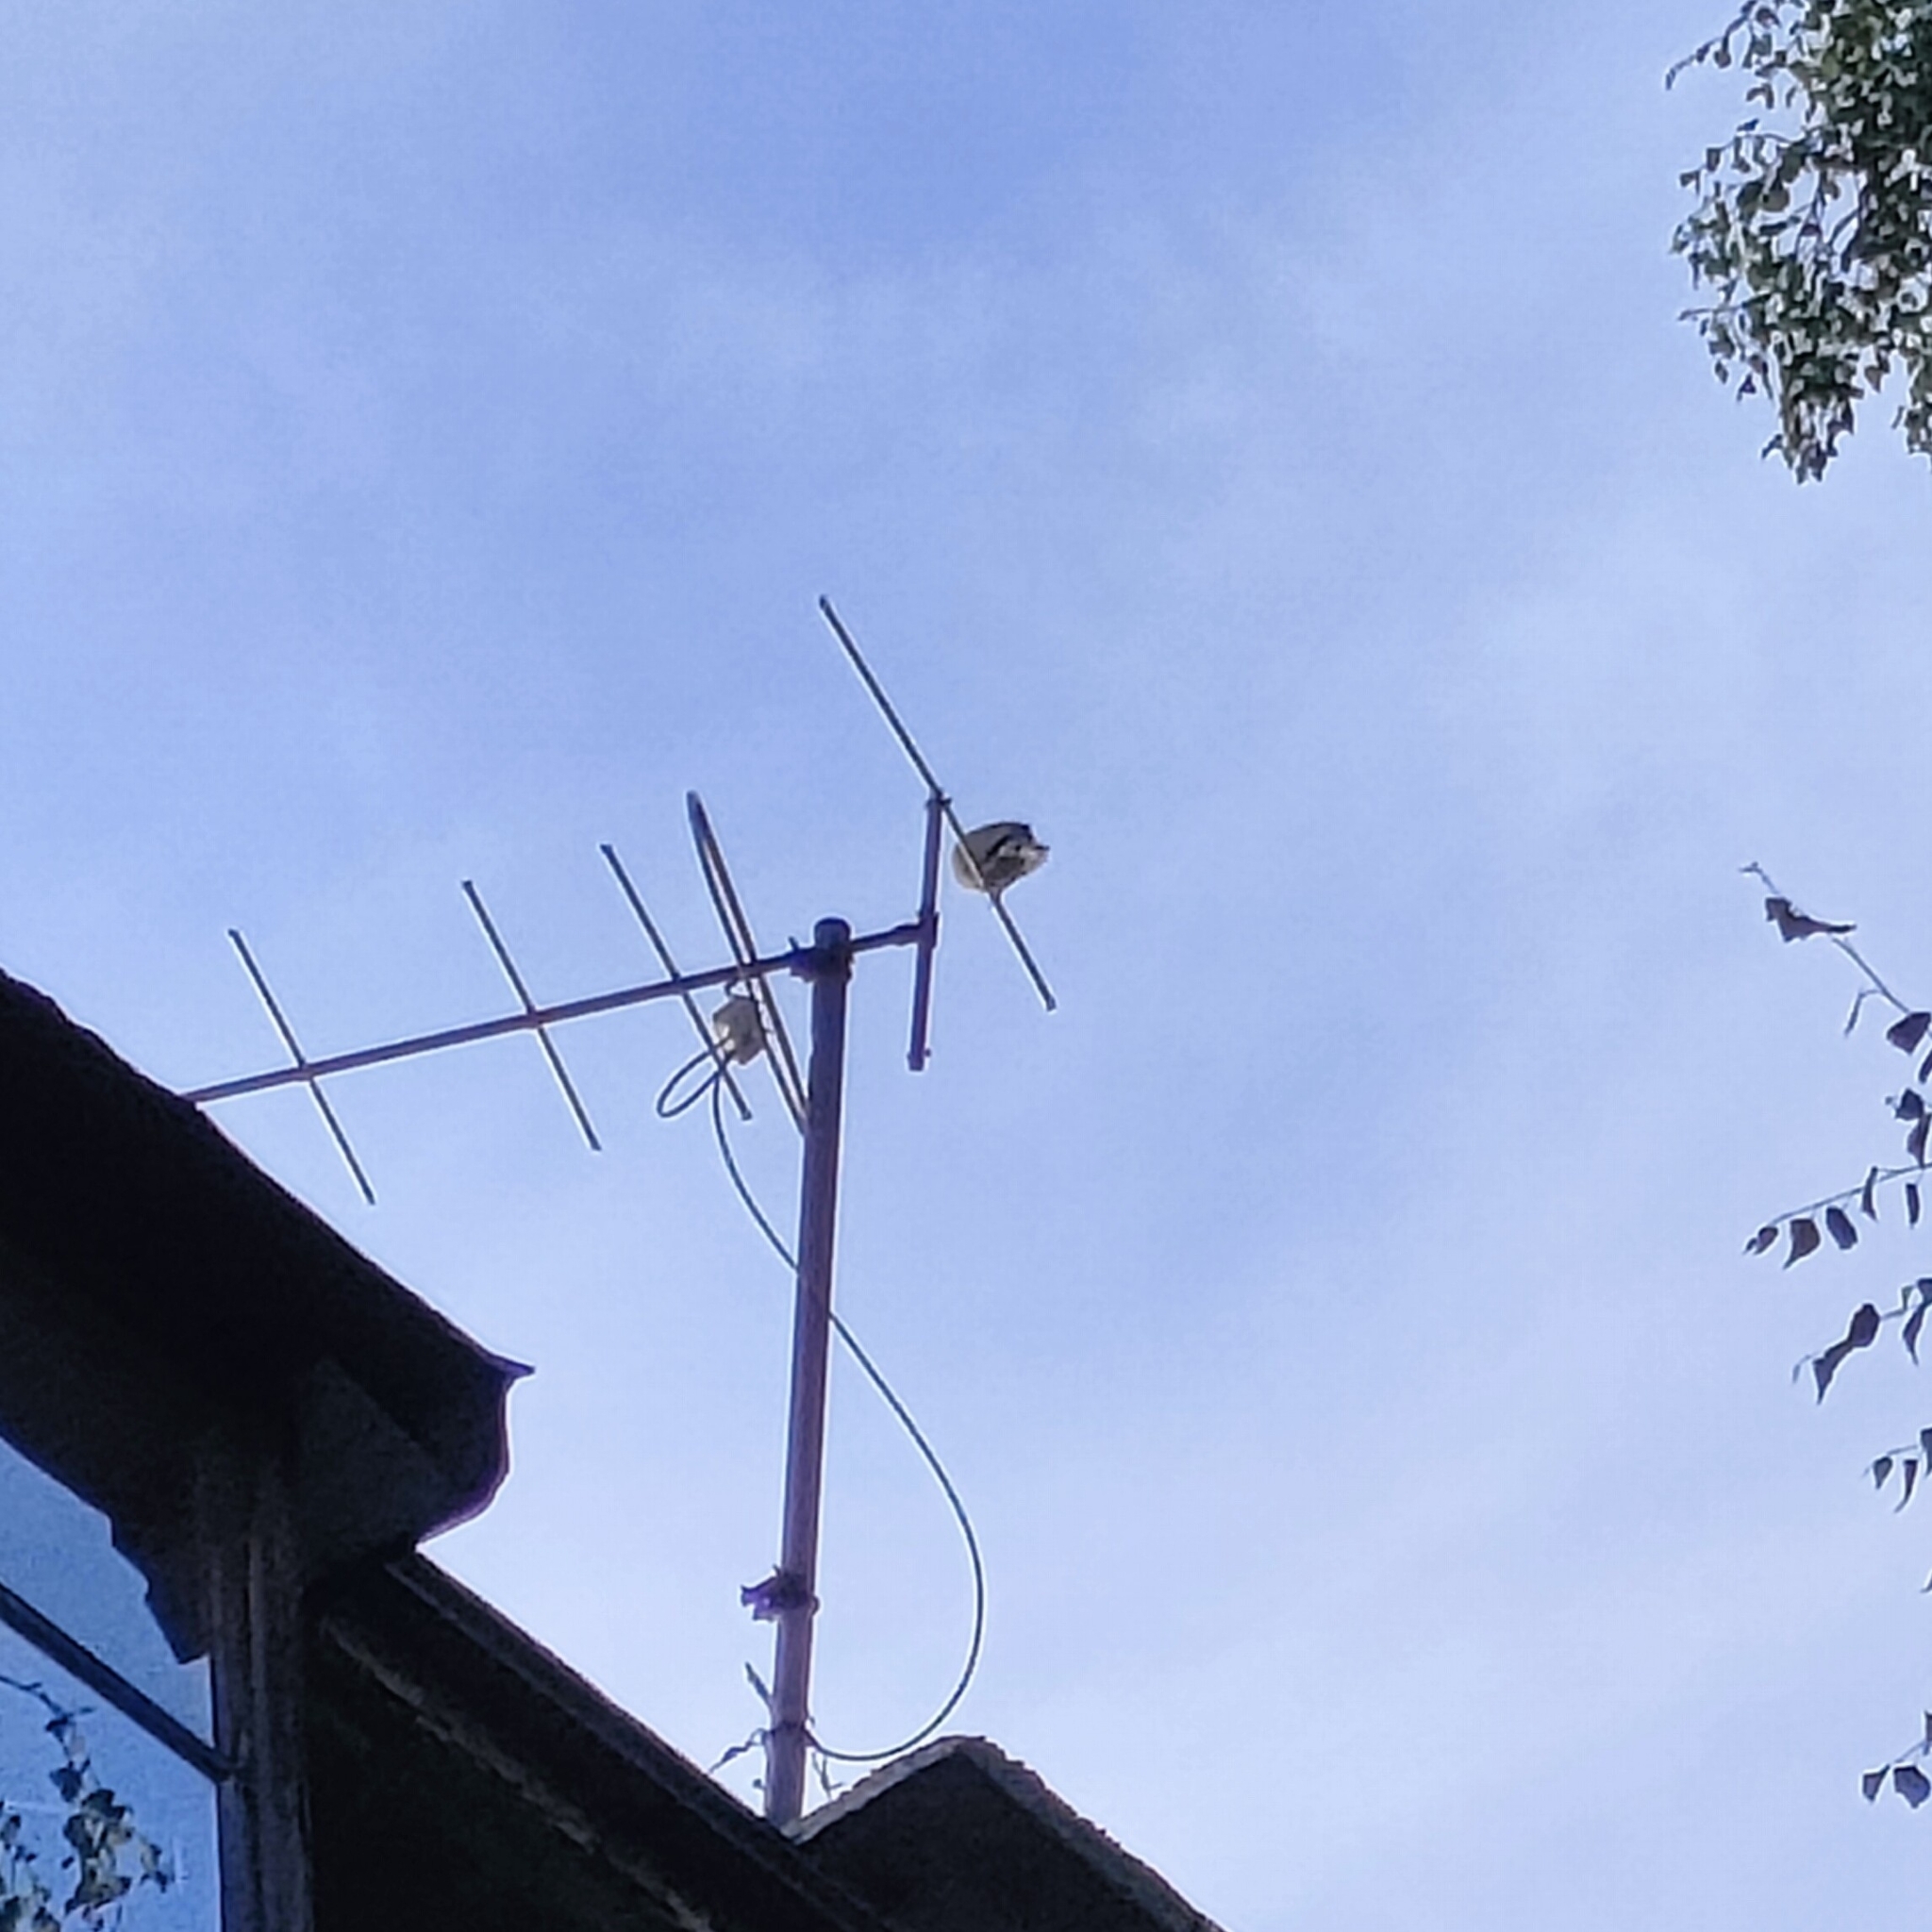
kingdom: Animalia
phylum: Chordata
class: Aves
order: Columbiformes
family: Columbidae
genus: Streptopelia
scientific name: Streptopelia decaocto
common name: Eurasian collared dove
